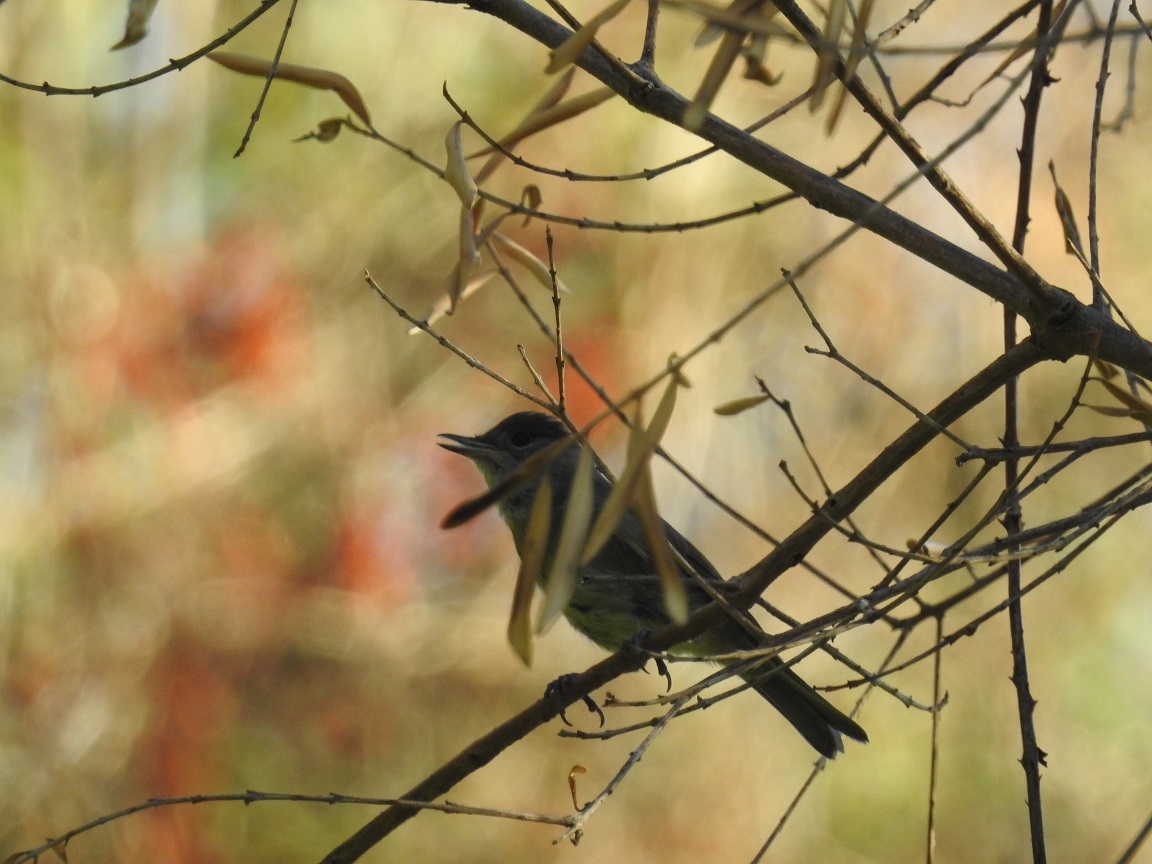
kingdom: Animalia
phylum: Chordata
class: Aves
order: Passeriformes
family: Sylviidae
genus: Sylvia
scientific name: Sylvia atricapilla
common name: Eurasian blackcap
